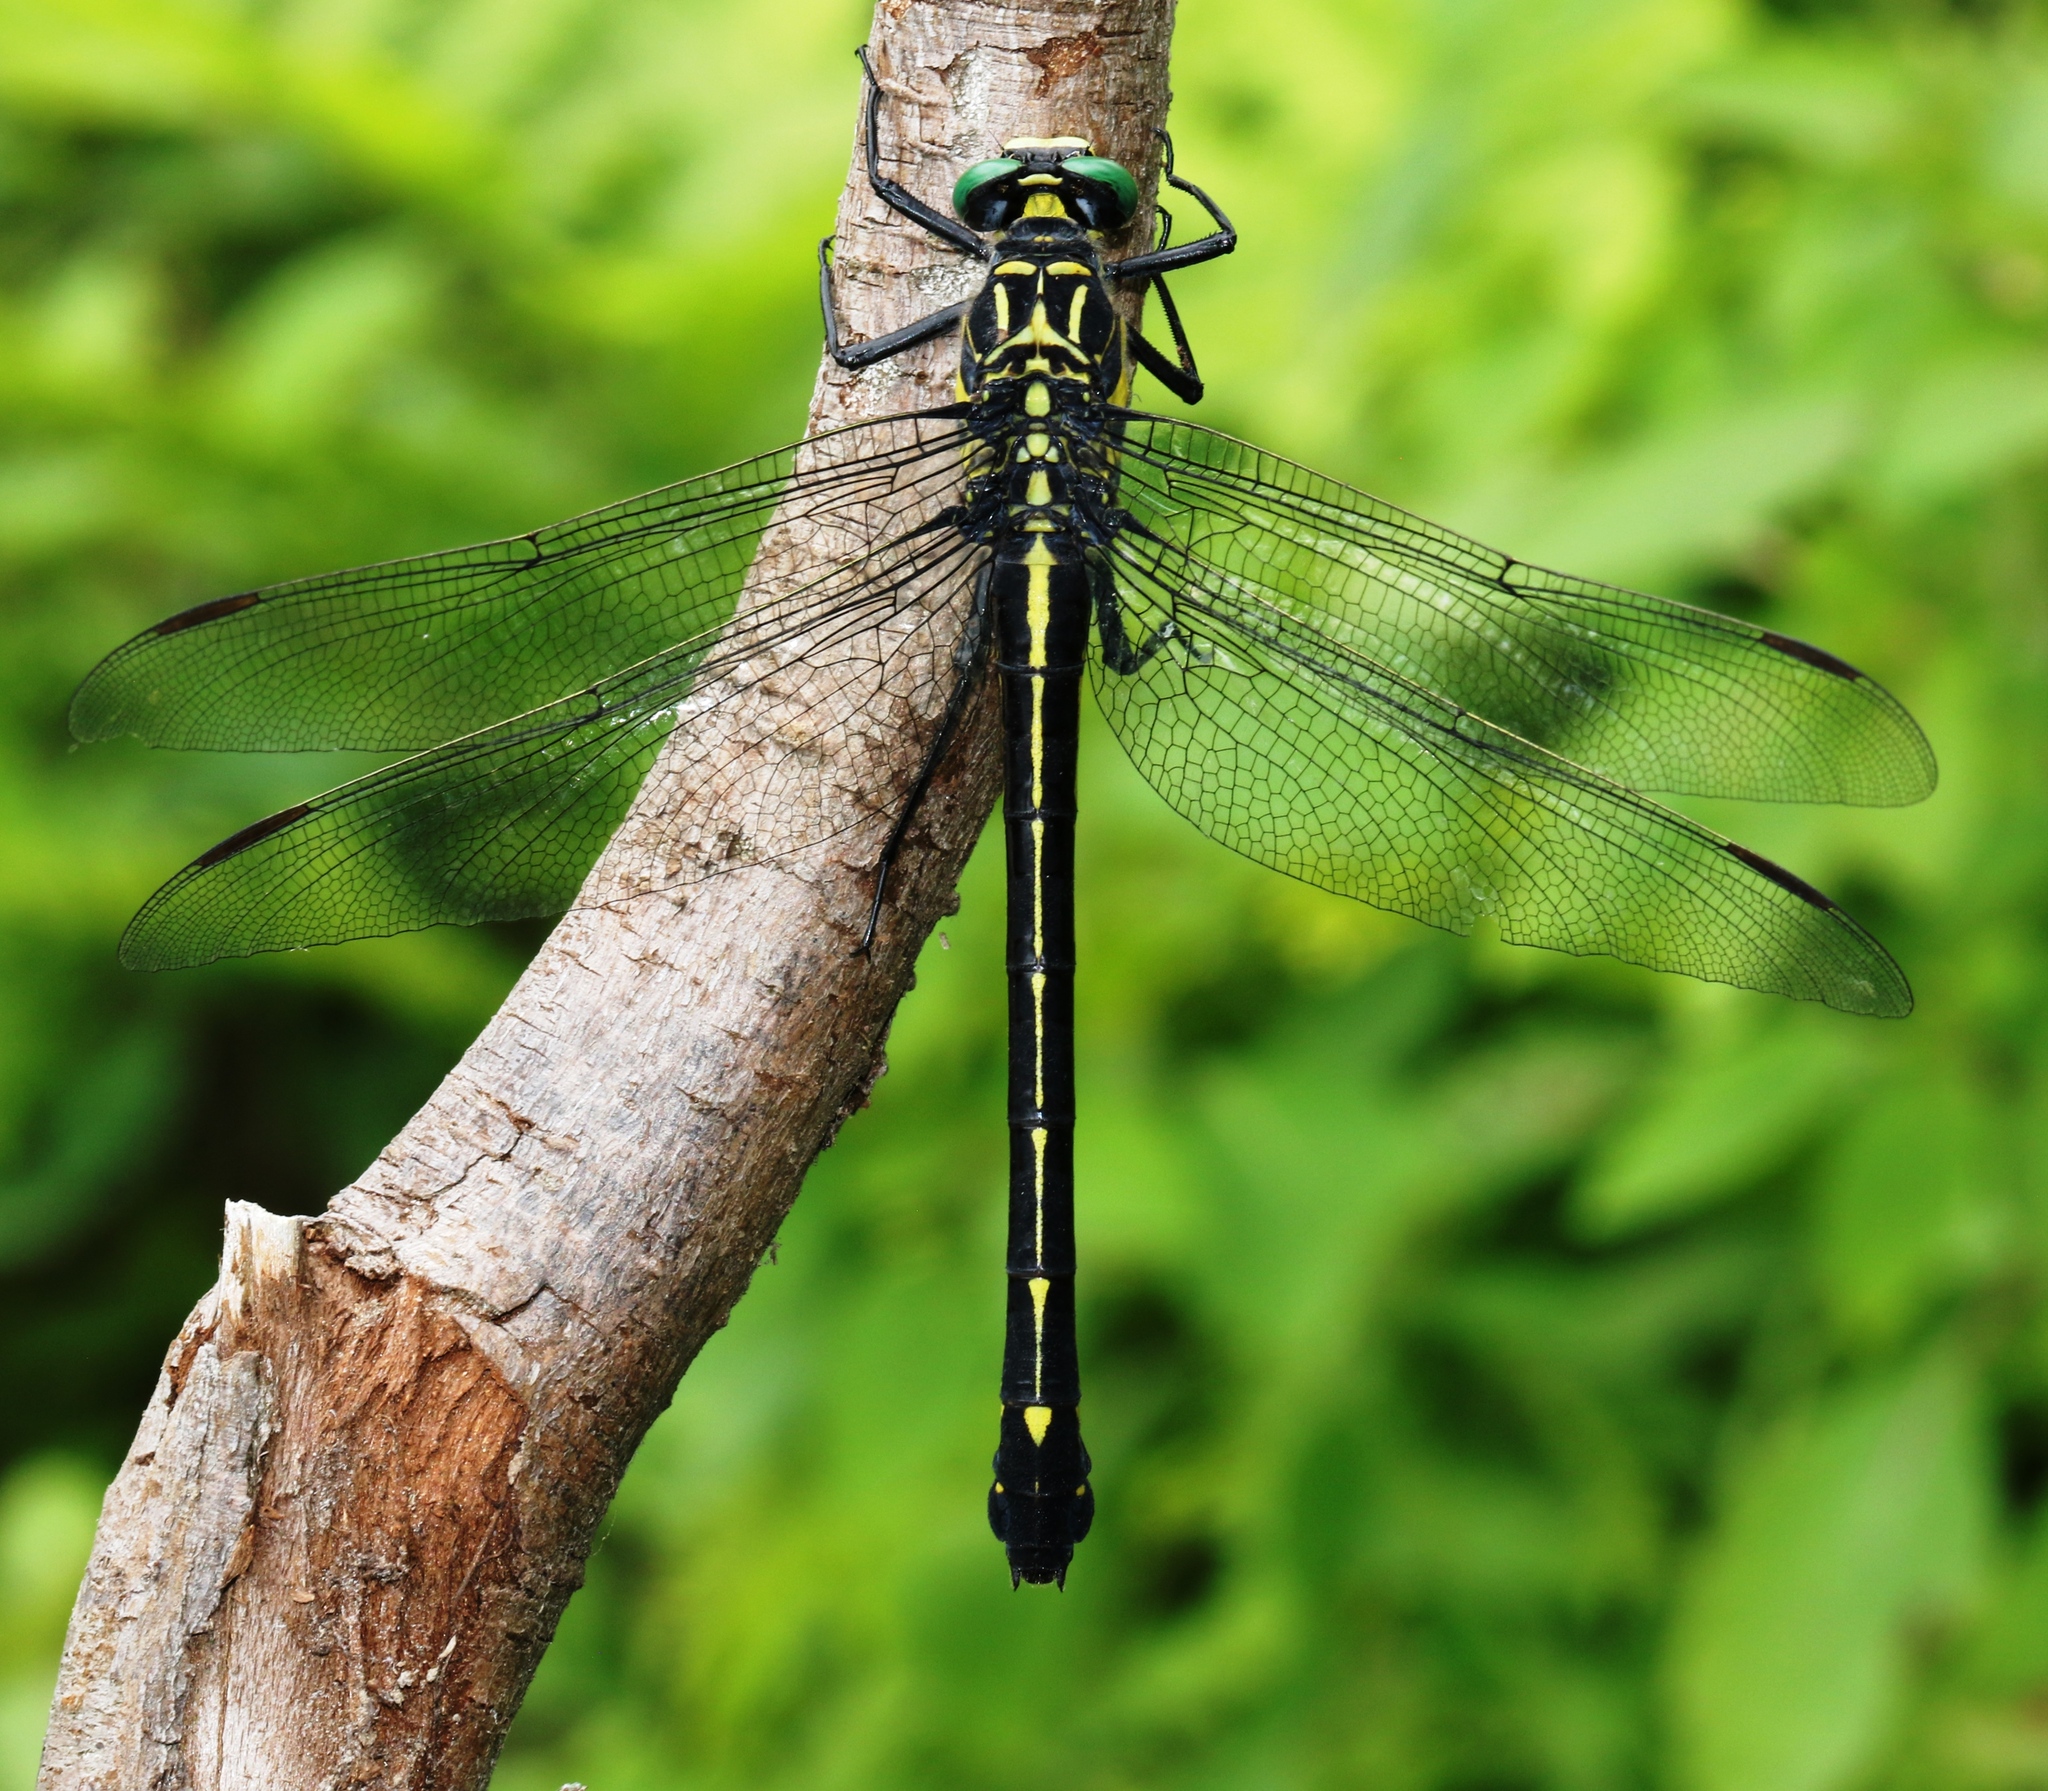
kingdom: Animalia
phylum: Arthropoda
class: Insecta
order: Odonata
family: Gomphidae
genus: Hagenius
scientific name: Hagenius brevistylus
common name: Dragonhunter
